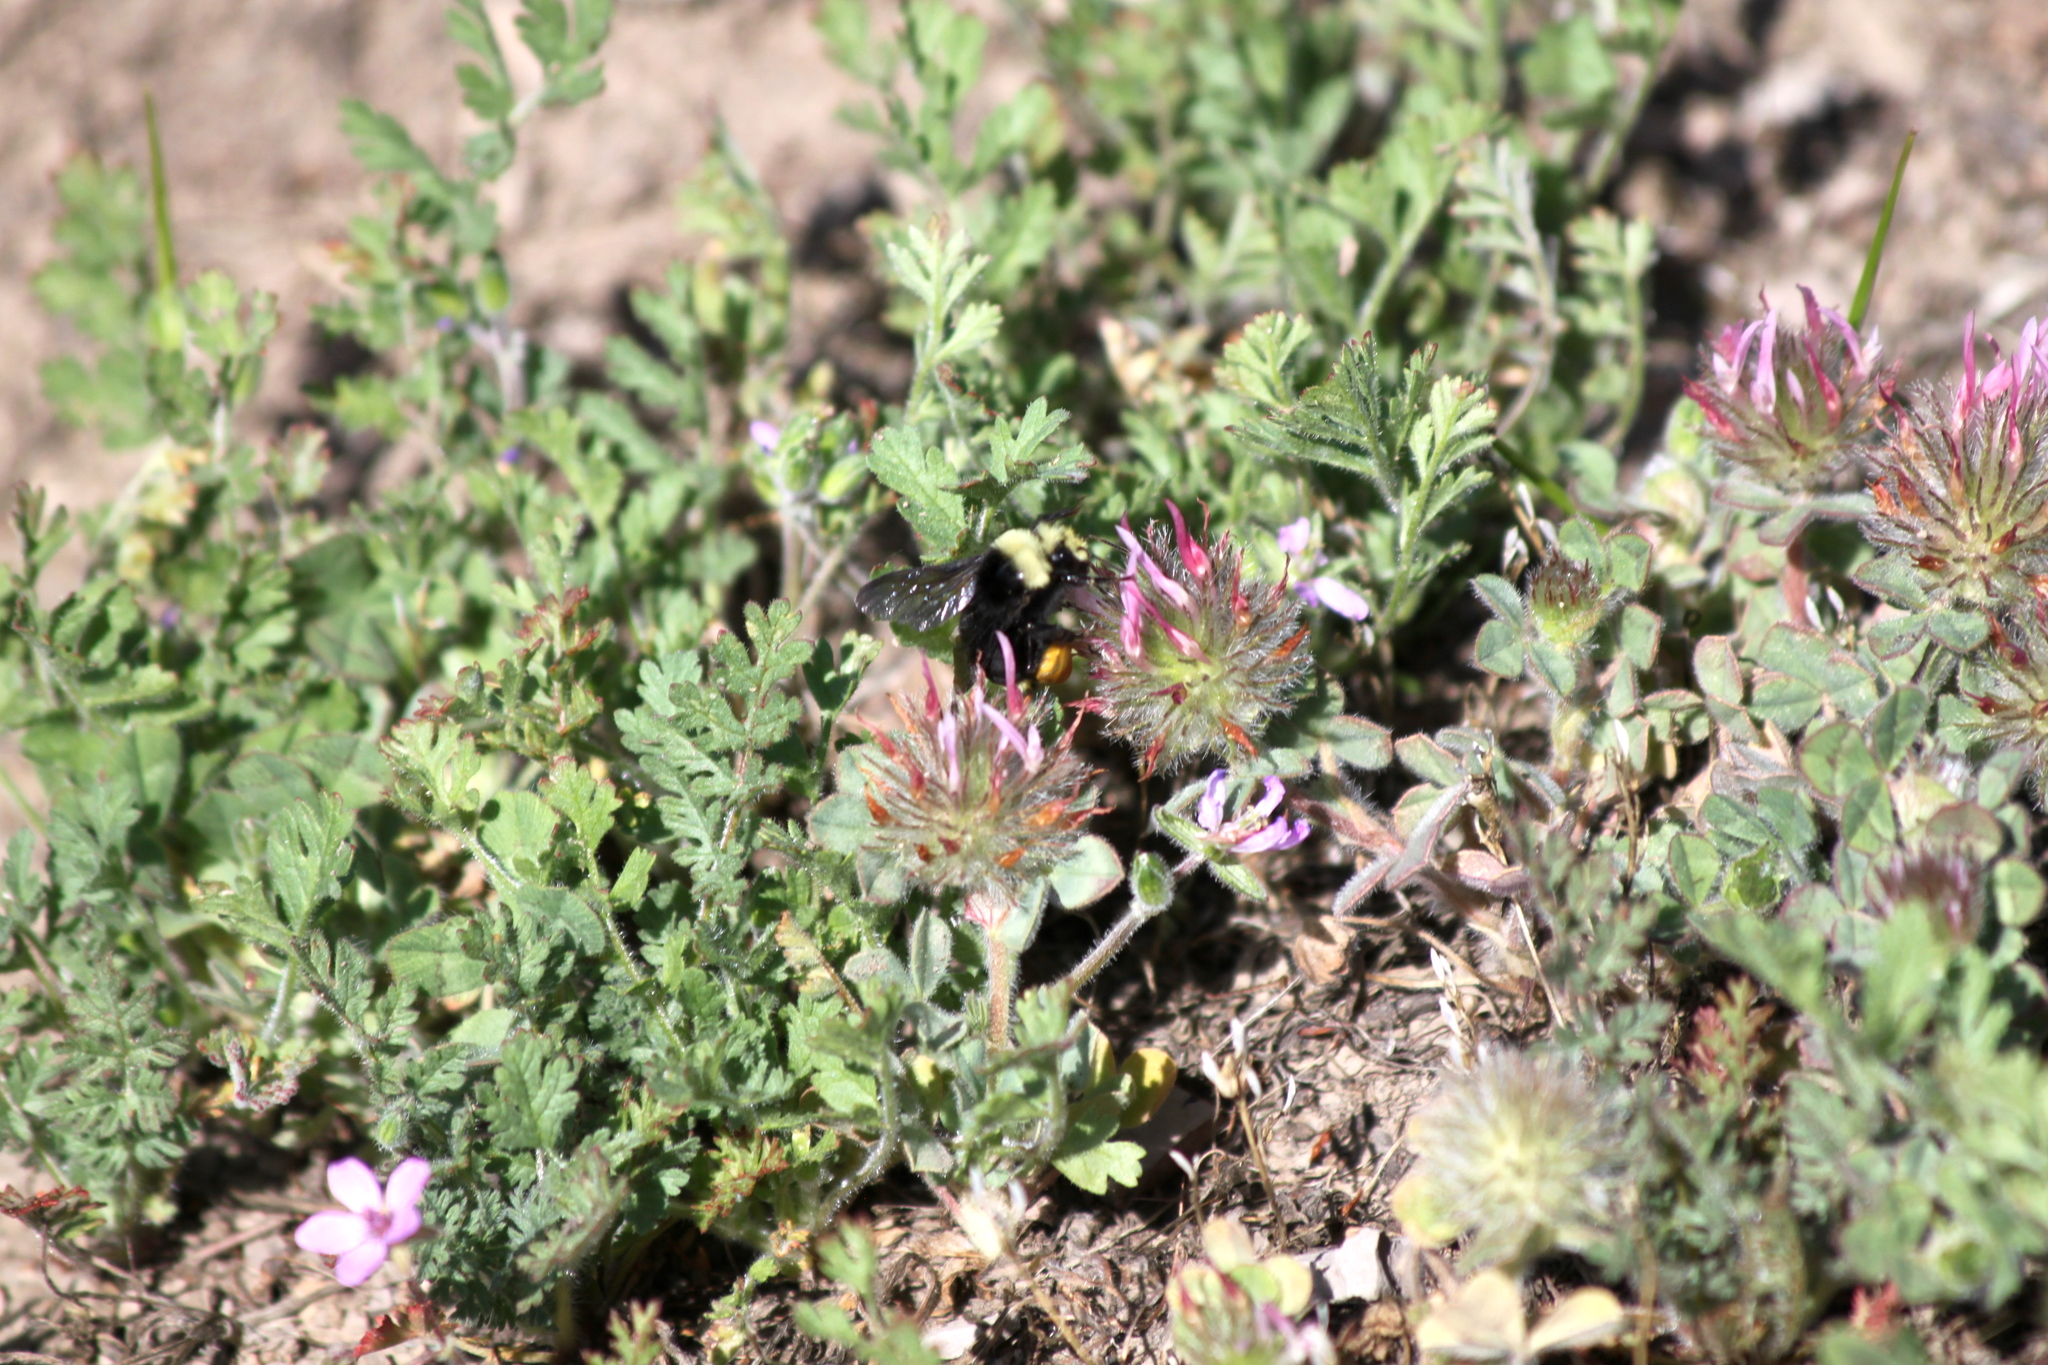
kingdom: Plantae
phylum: Tracheophyta
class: Magnoliopsida
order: Fabales
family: Fabaceae
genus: Trifolium
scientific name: Trifolium hirtum
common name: Rose clover
